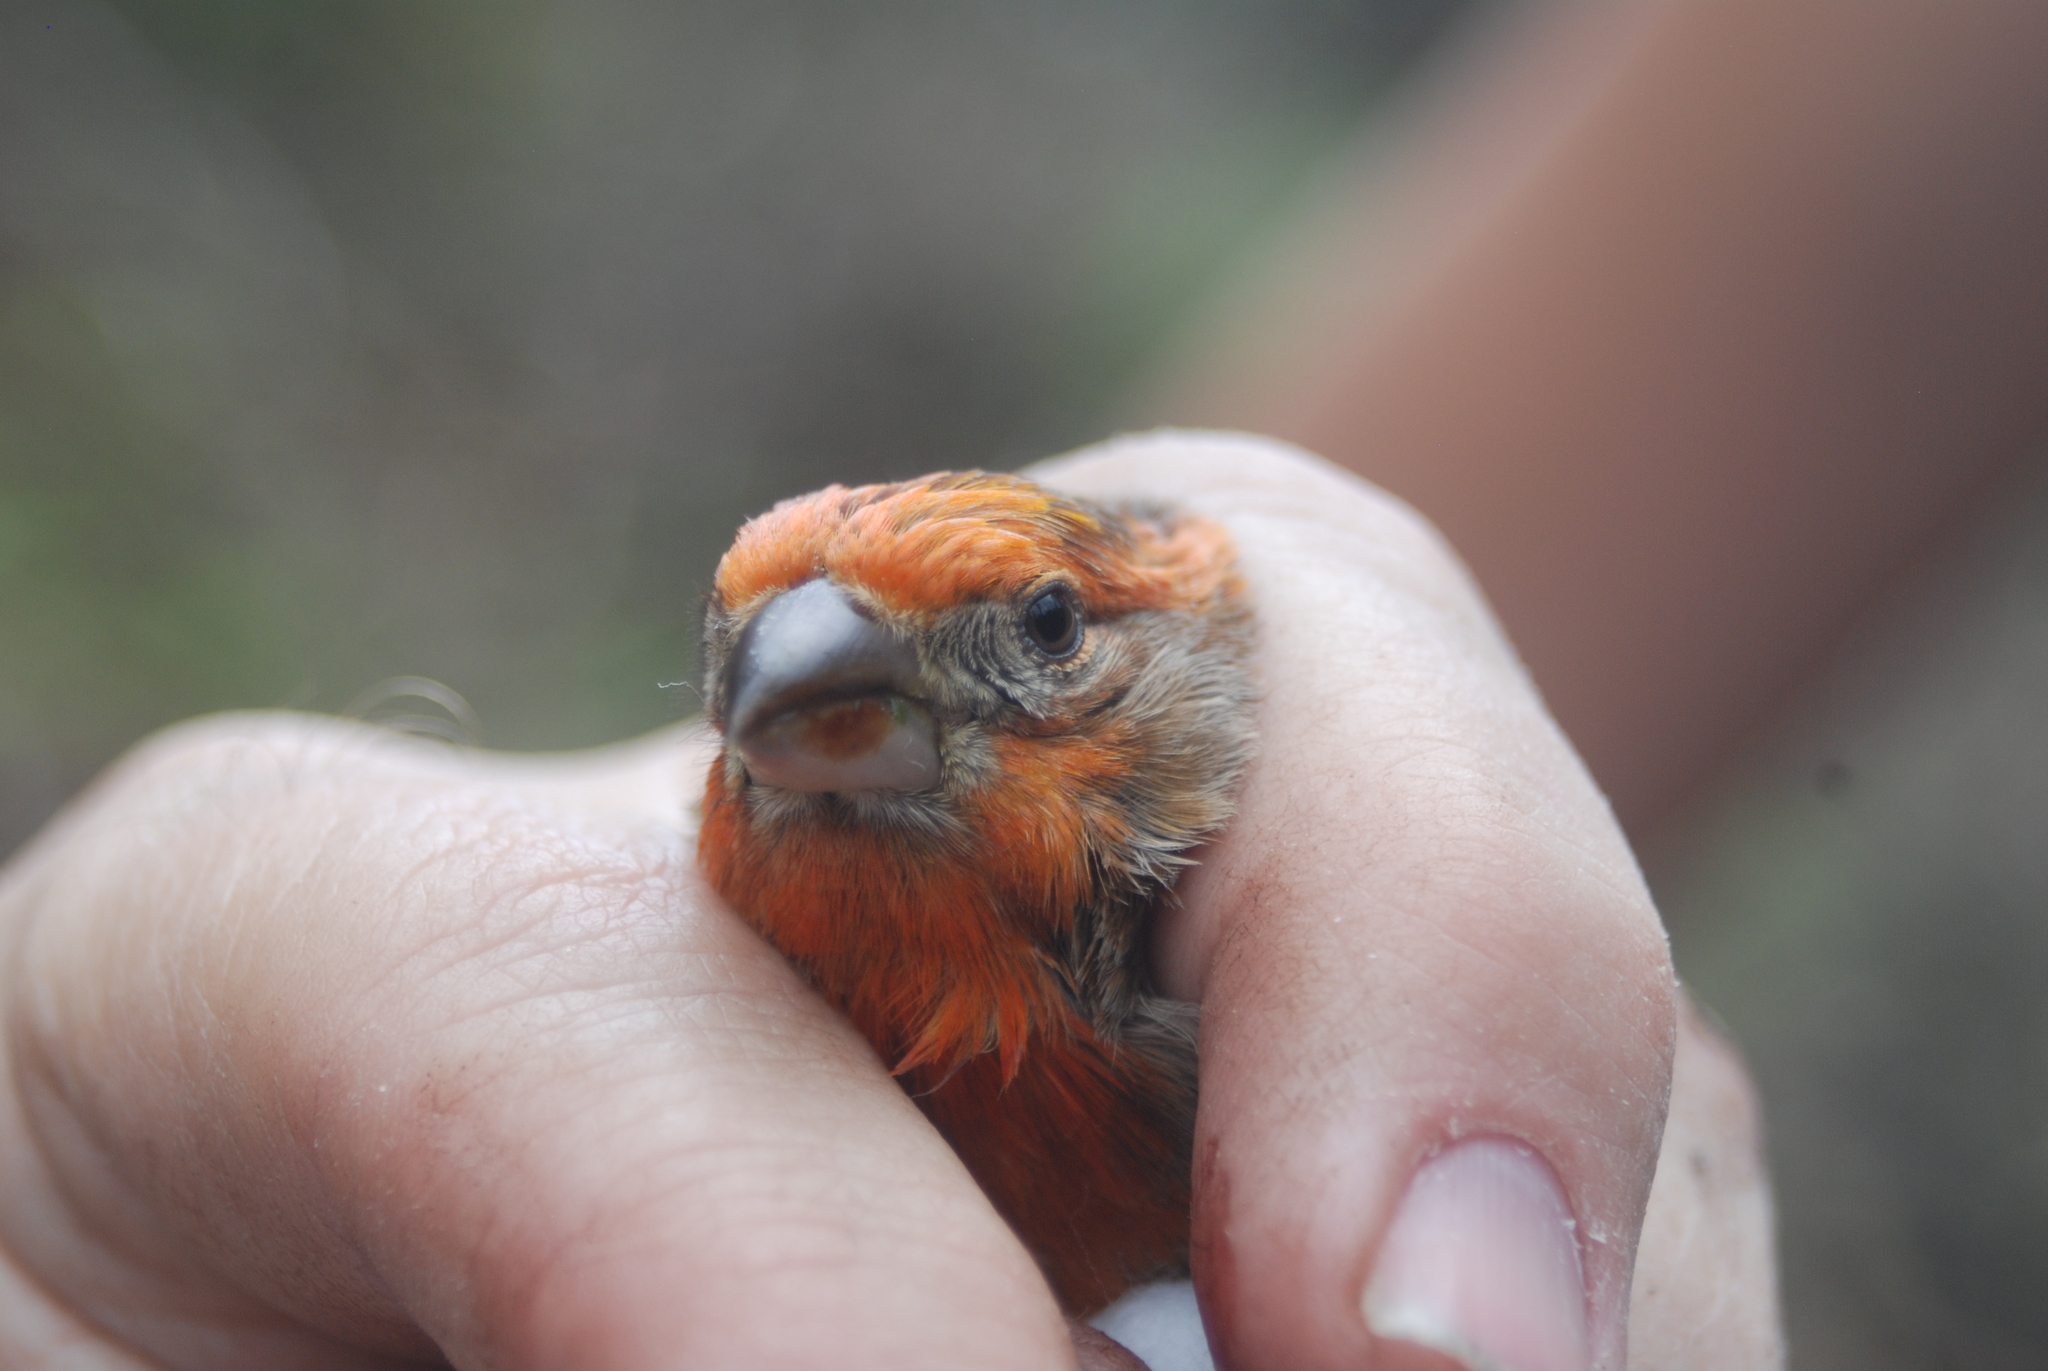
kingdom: Animalia
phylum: Chordata
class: Aves
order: Passeriformes
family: Fringillidae
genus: Haemorhous
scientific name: Haemorhous mexicanus
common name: House finch
